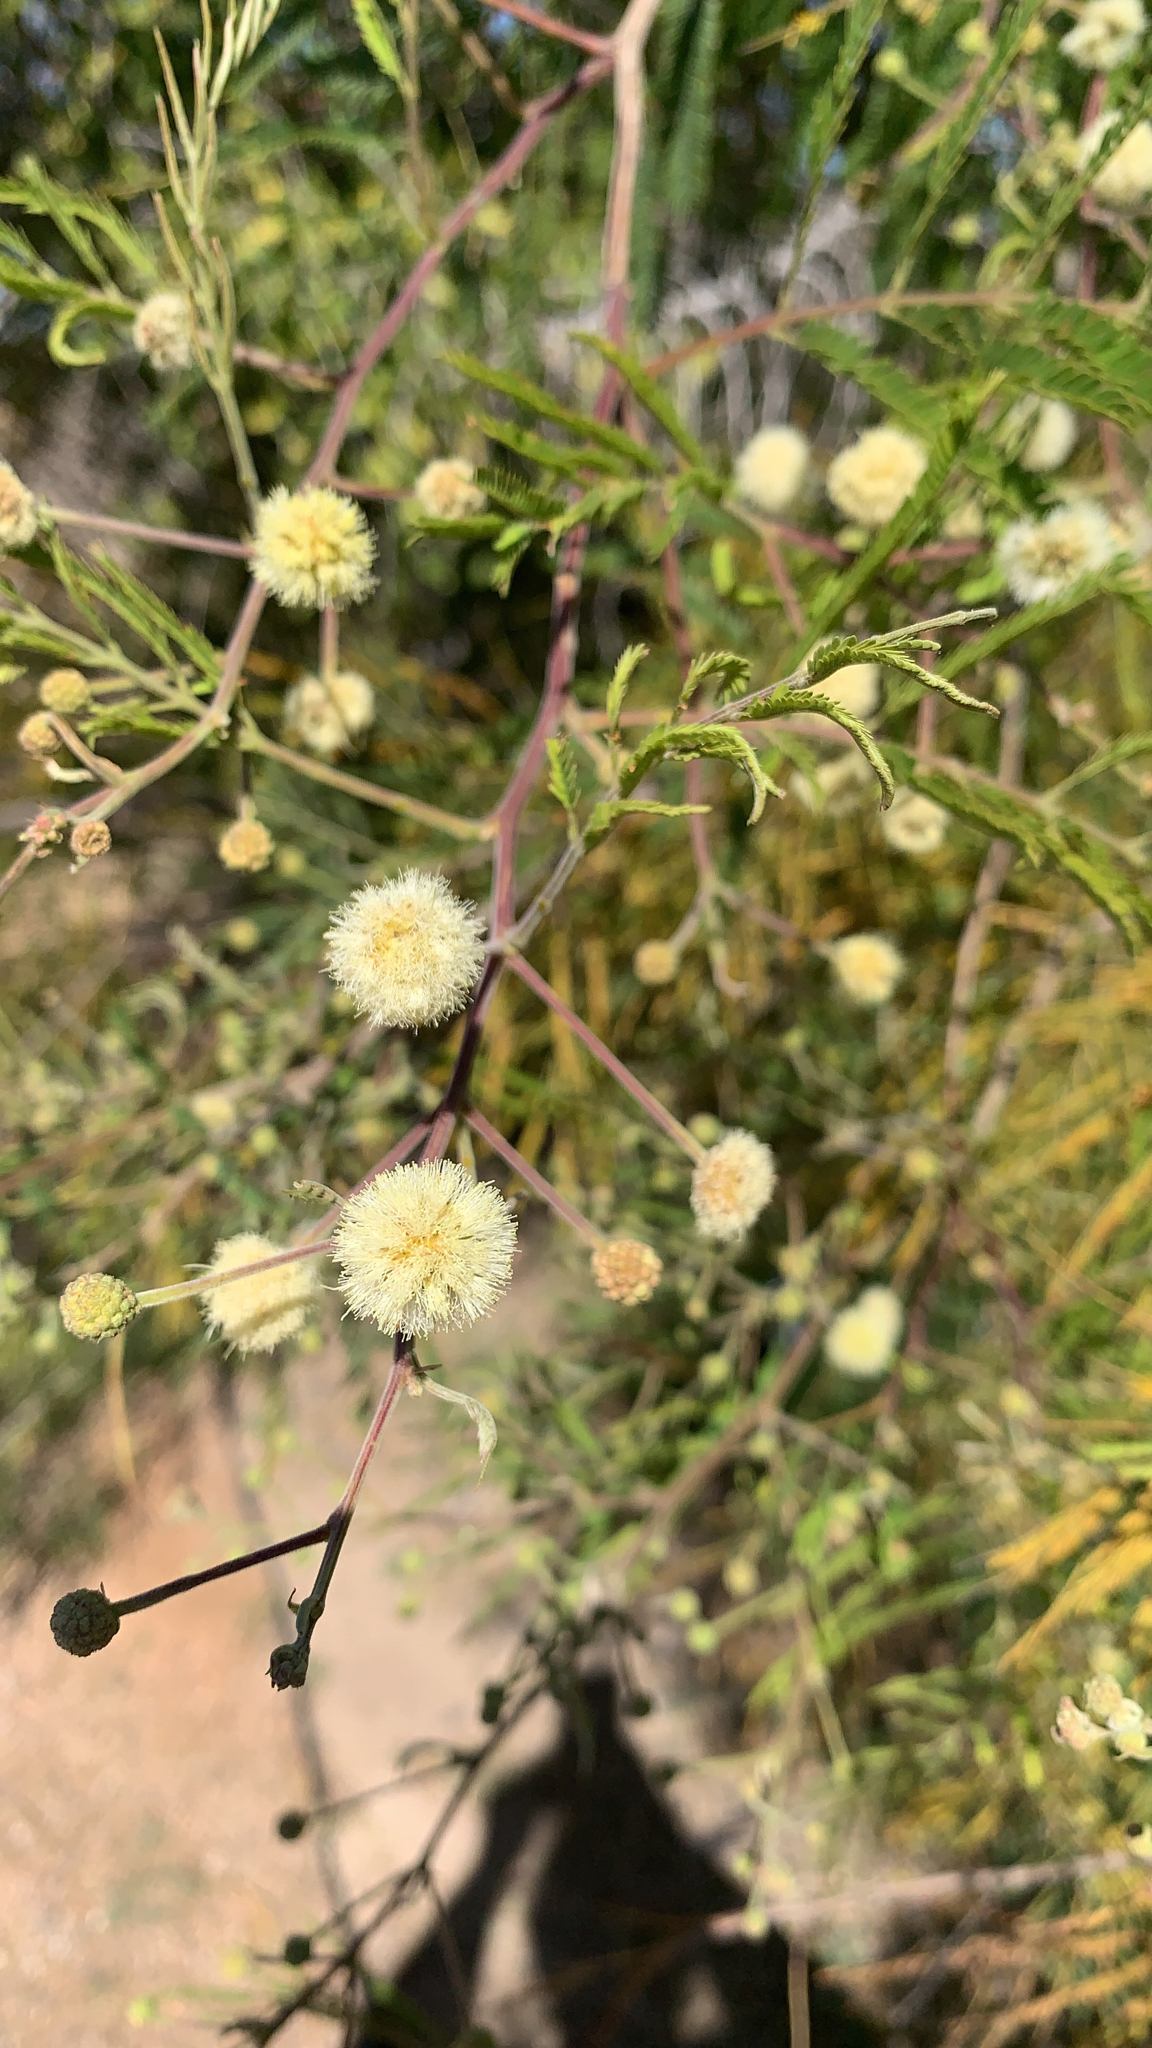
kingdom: Plantae
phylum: Tracheophyta
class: Magnoliopsida
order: Fabales
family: Fabaceae
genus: Senegalia
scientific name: Senegalia berlandieri
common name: Berlandier acacia
